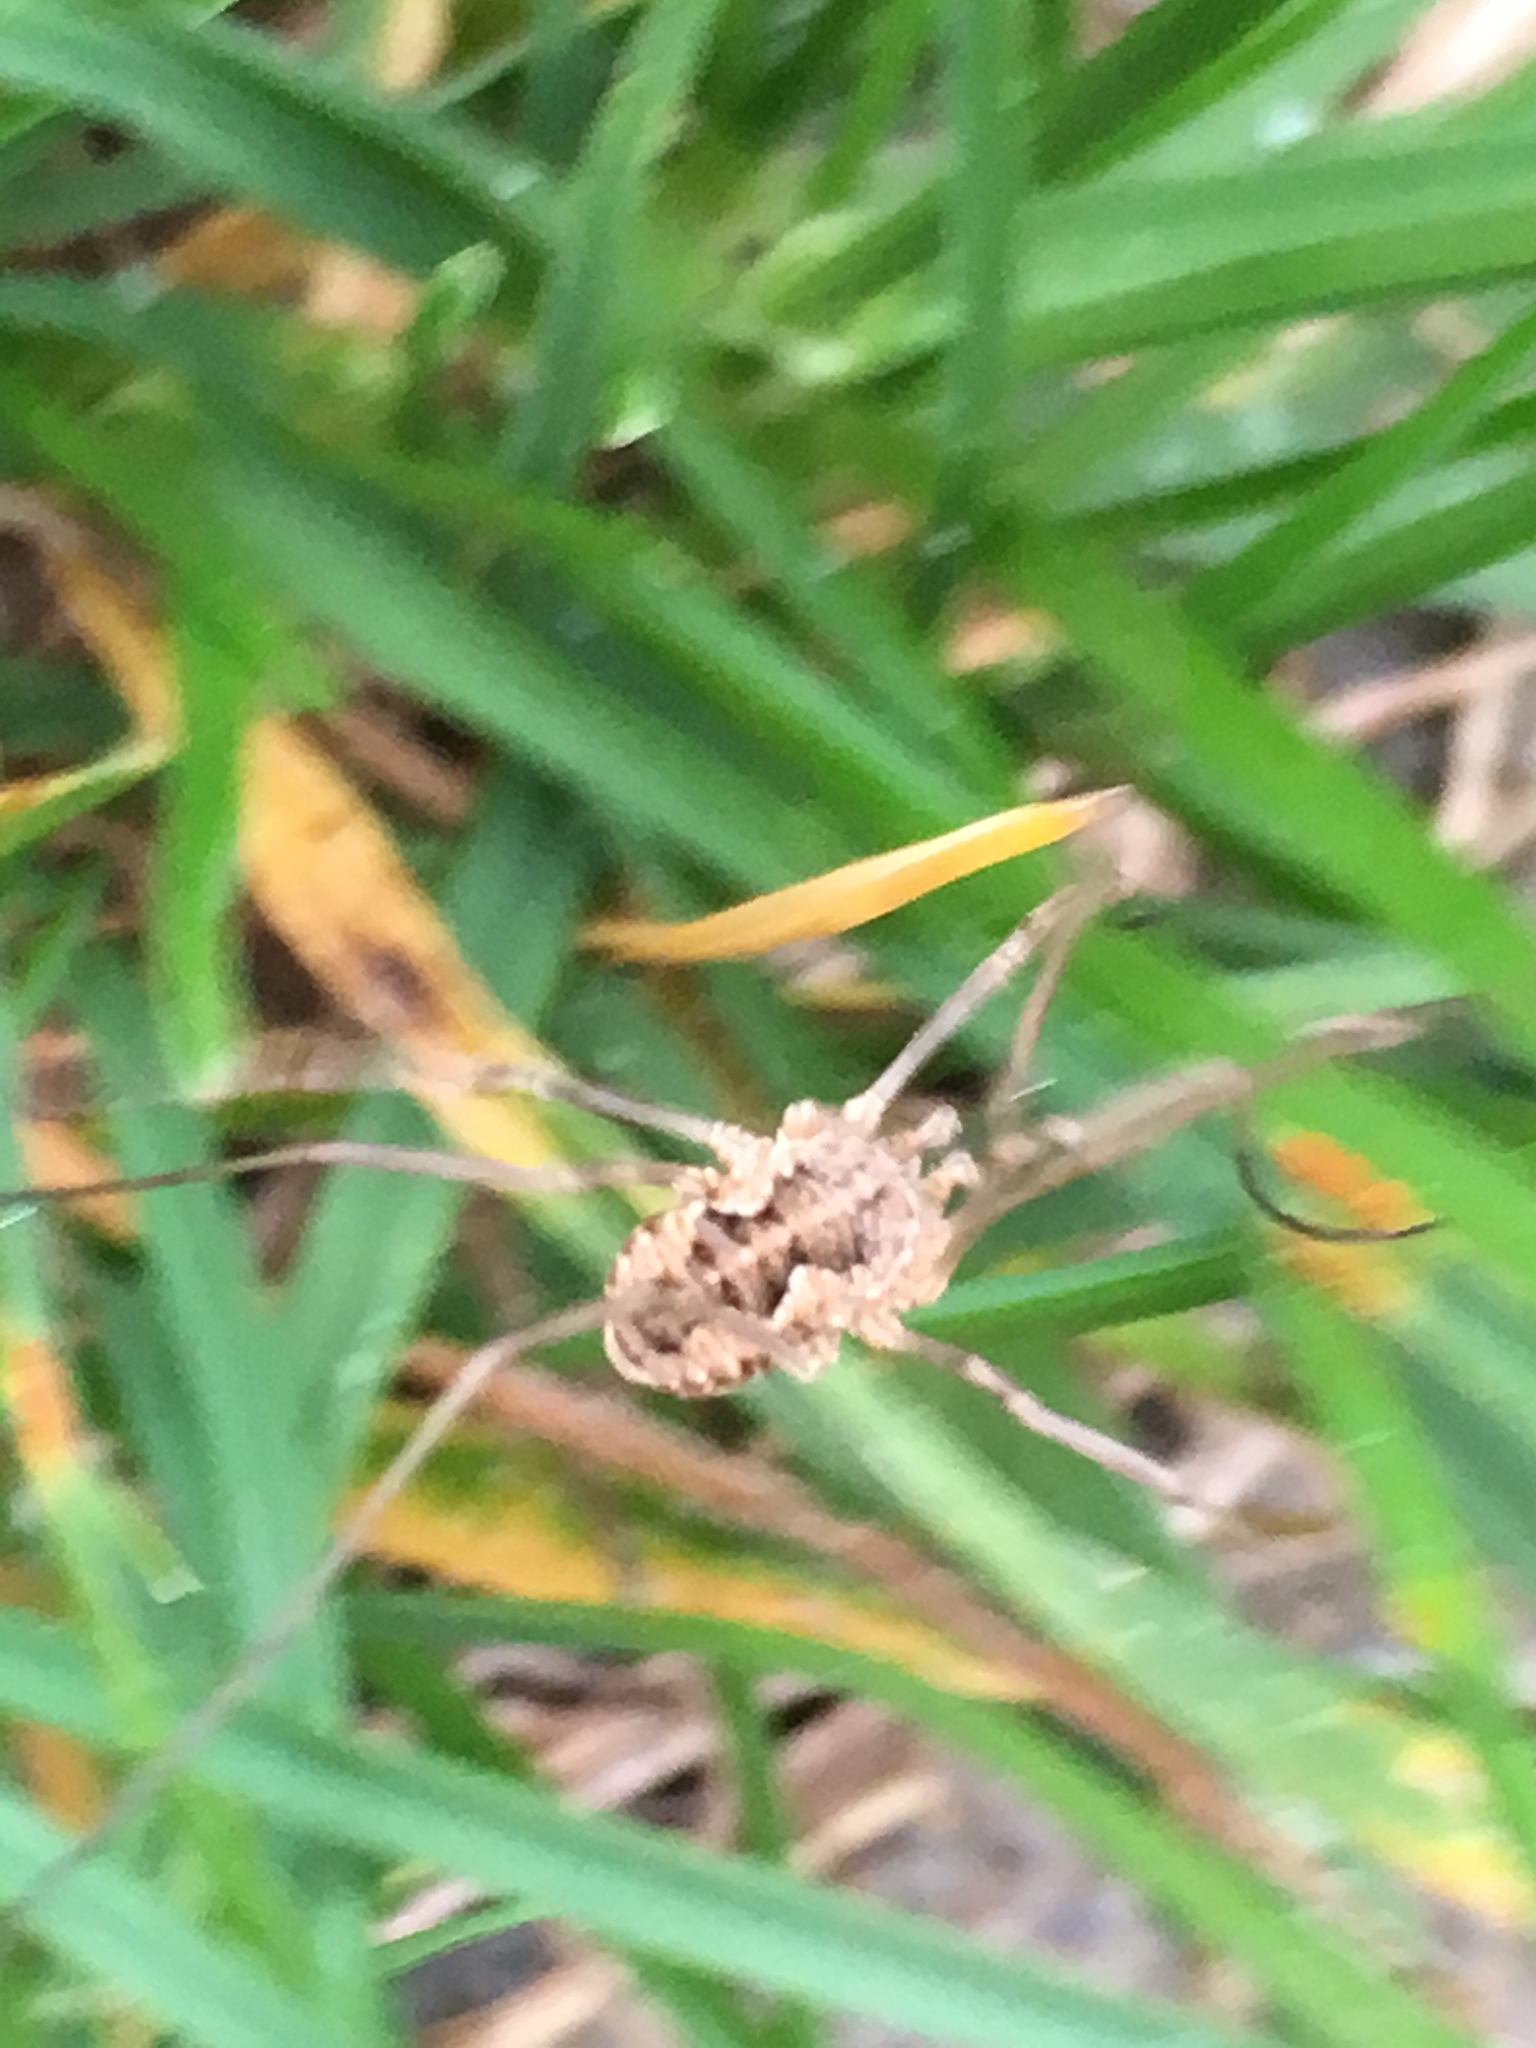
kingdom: Animalia
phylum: Arthropoda
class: Arachnida
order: Opiliones
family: Phalangiidae
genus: Phalangium
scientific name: Phalangium opilio
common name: Daddy longleg
